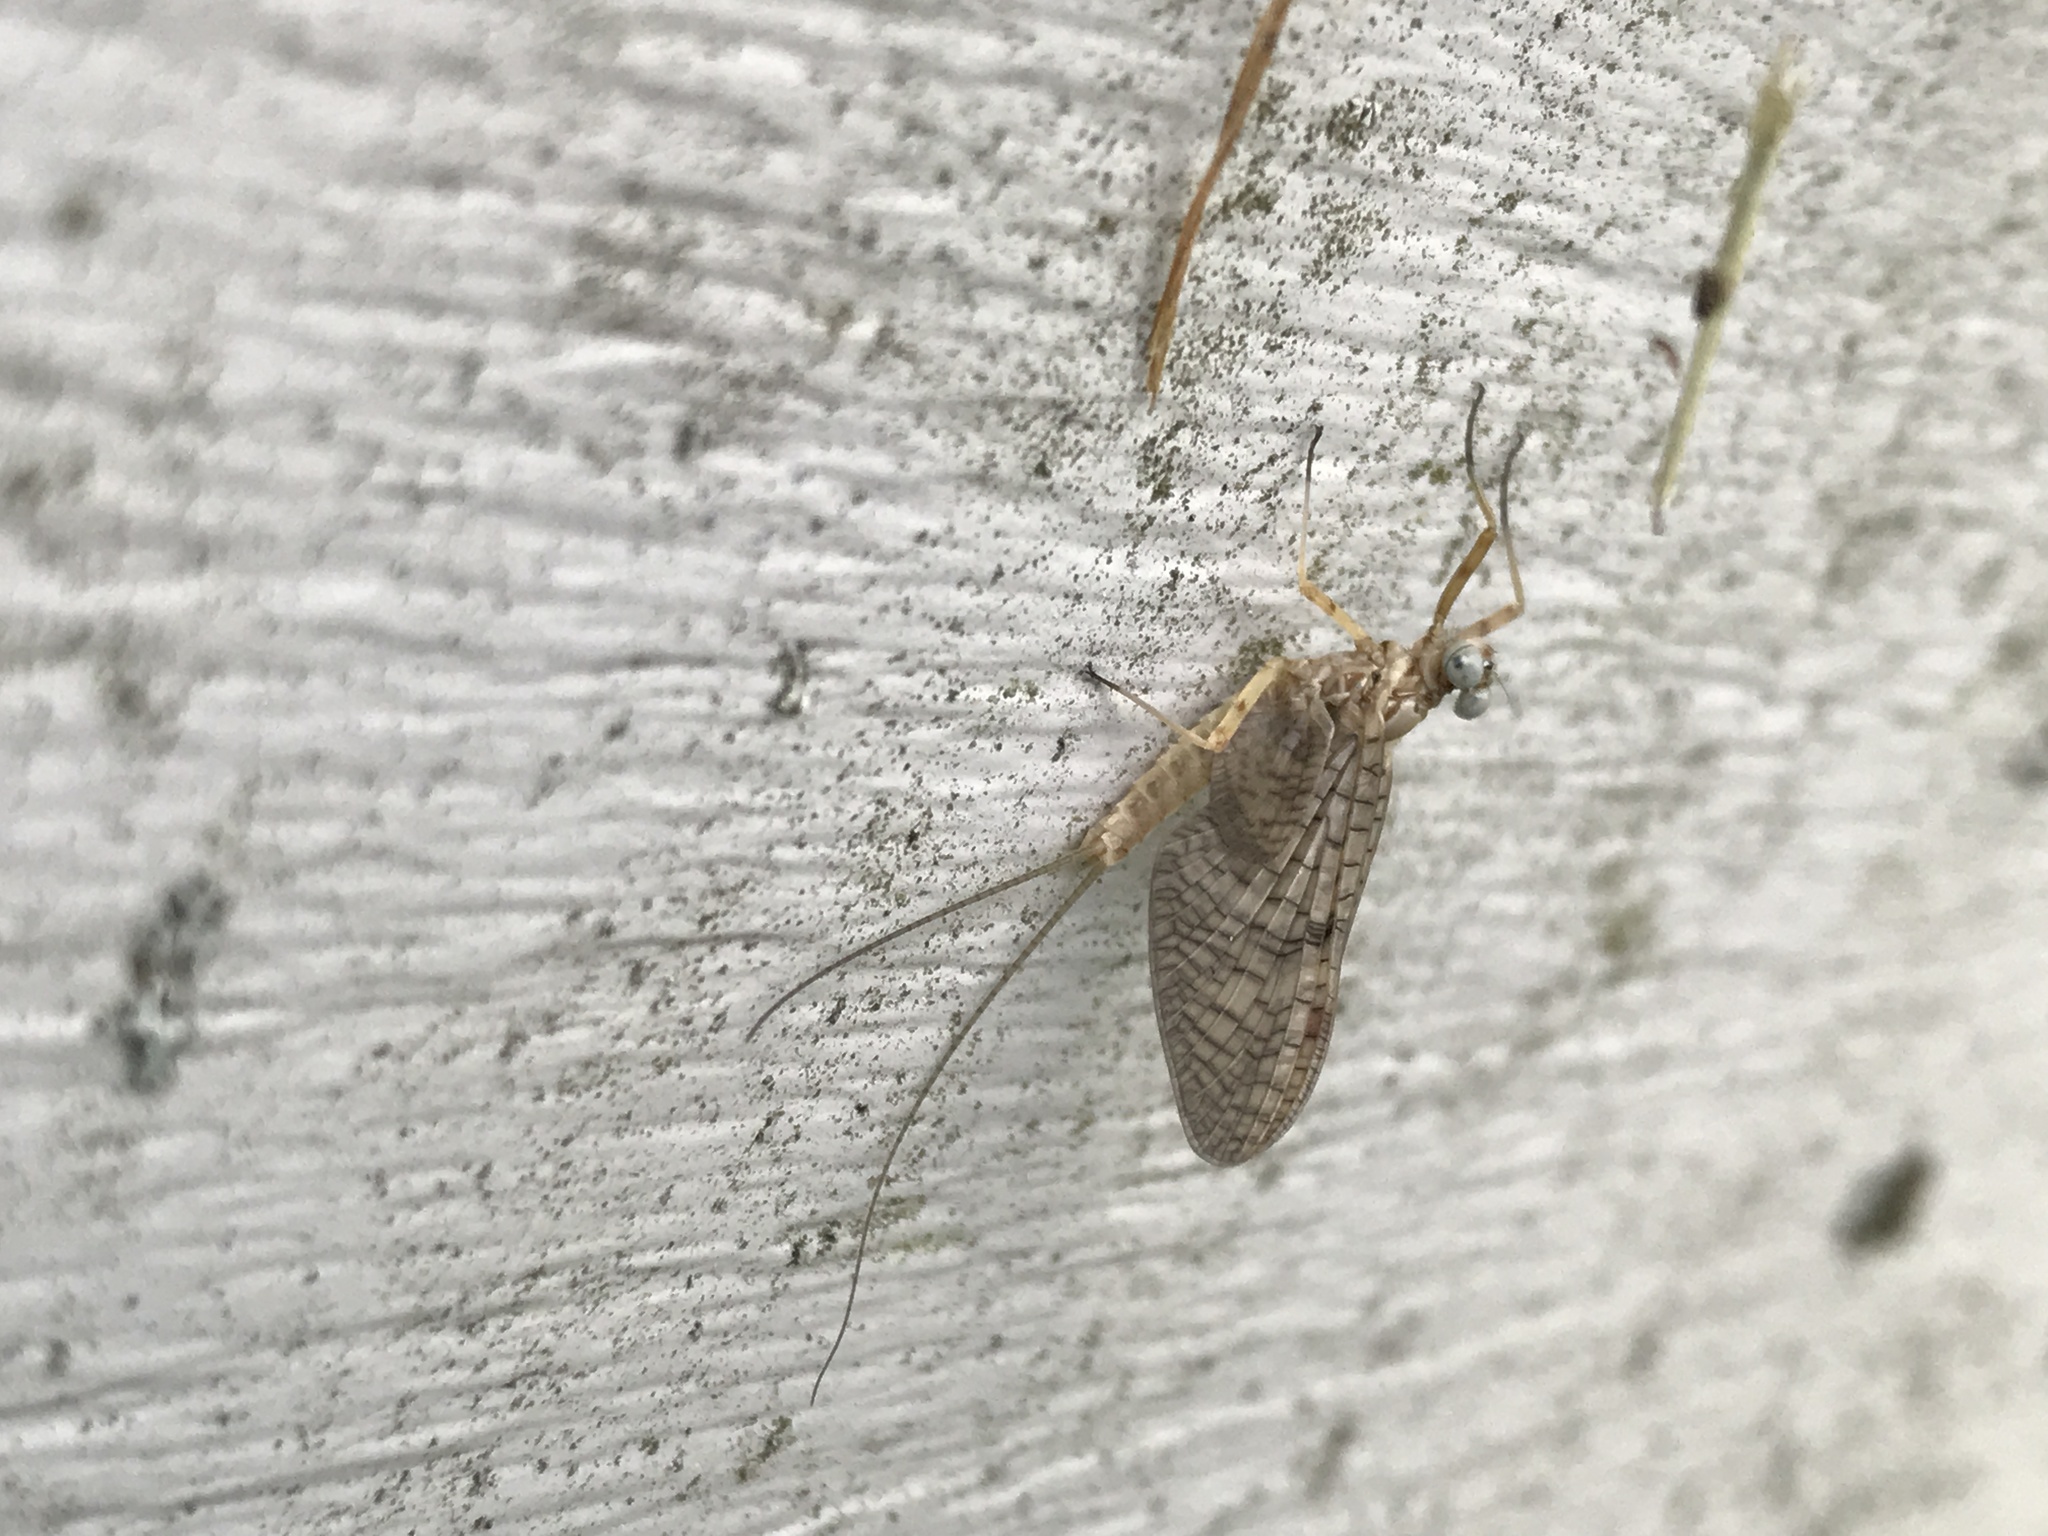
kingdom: Animalia
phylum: Arthropoda
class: Insecta
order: Ephemeroptera
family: Heptageniidae
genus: Stenonema
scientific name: Stenonema femoratum
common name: Dark cahill
